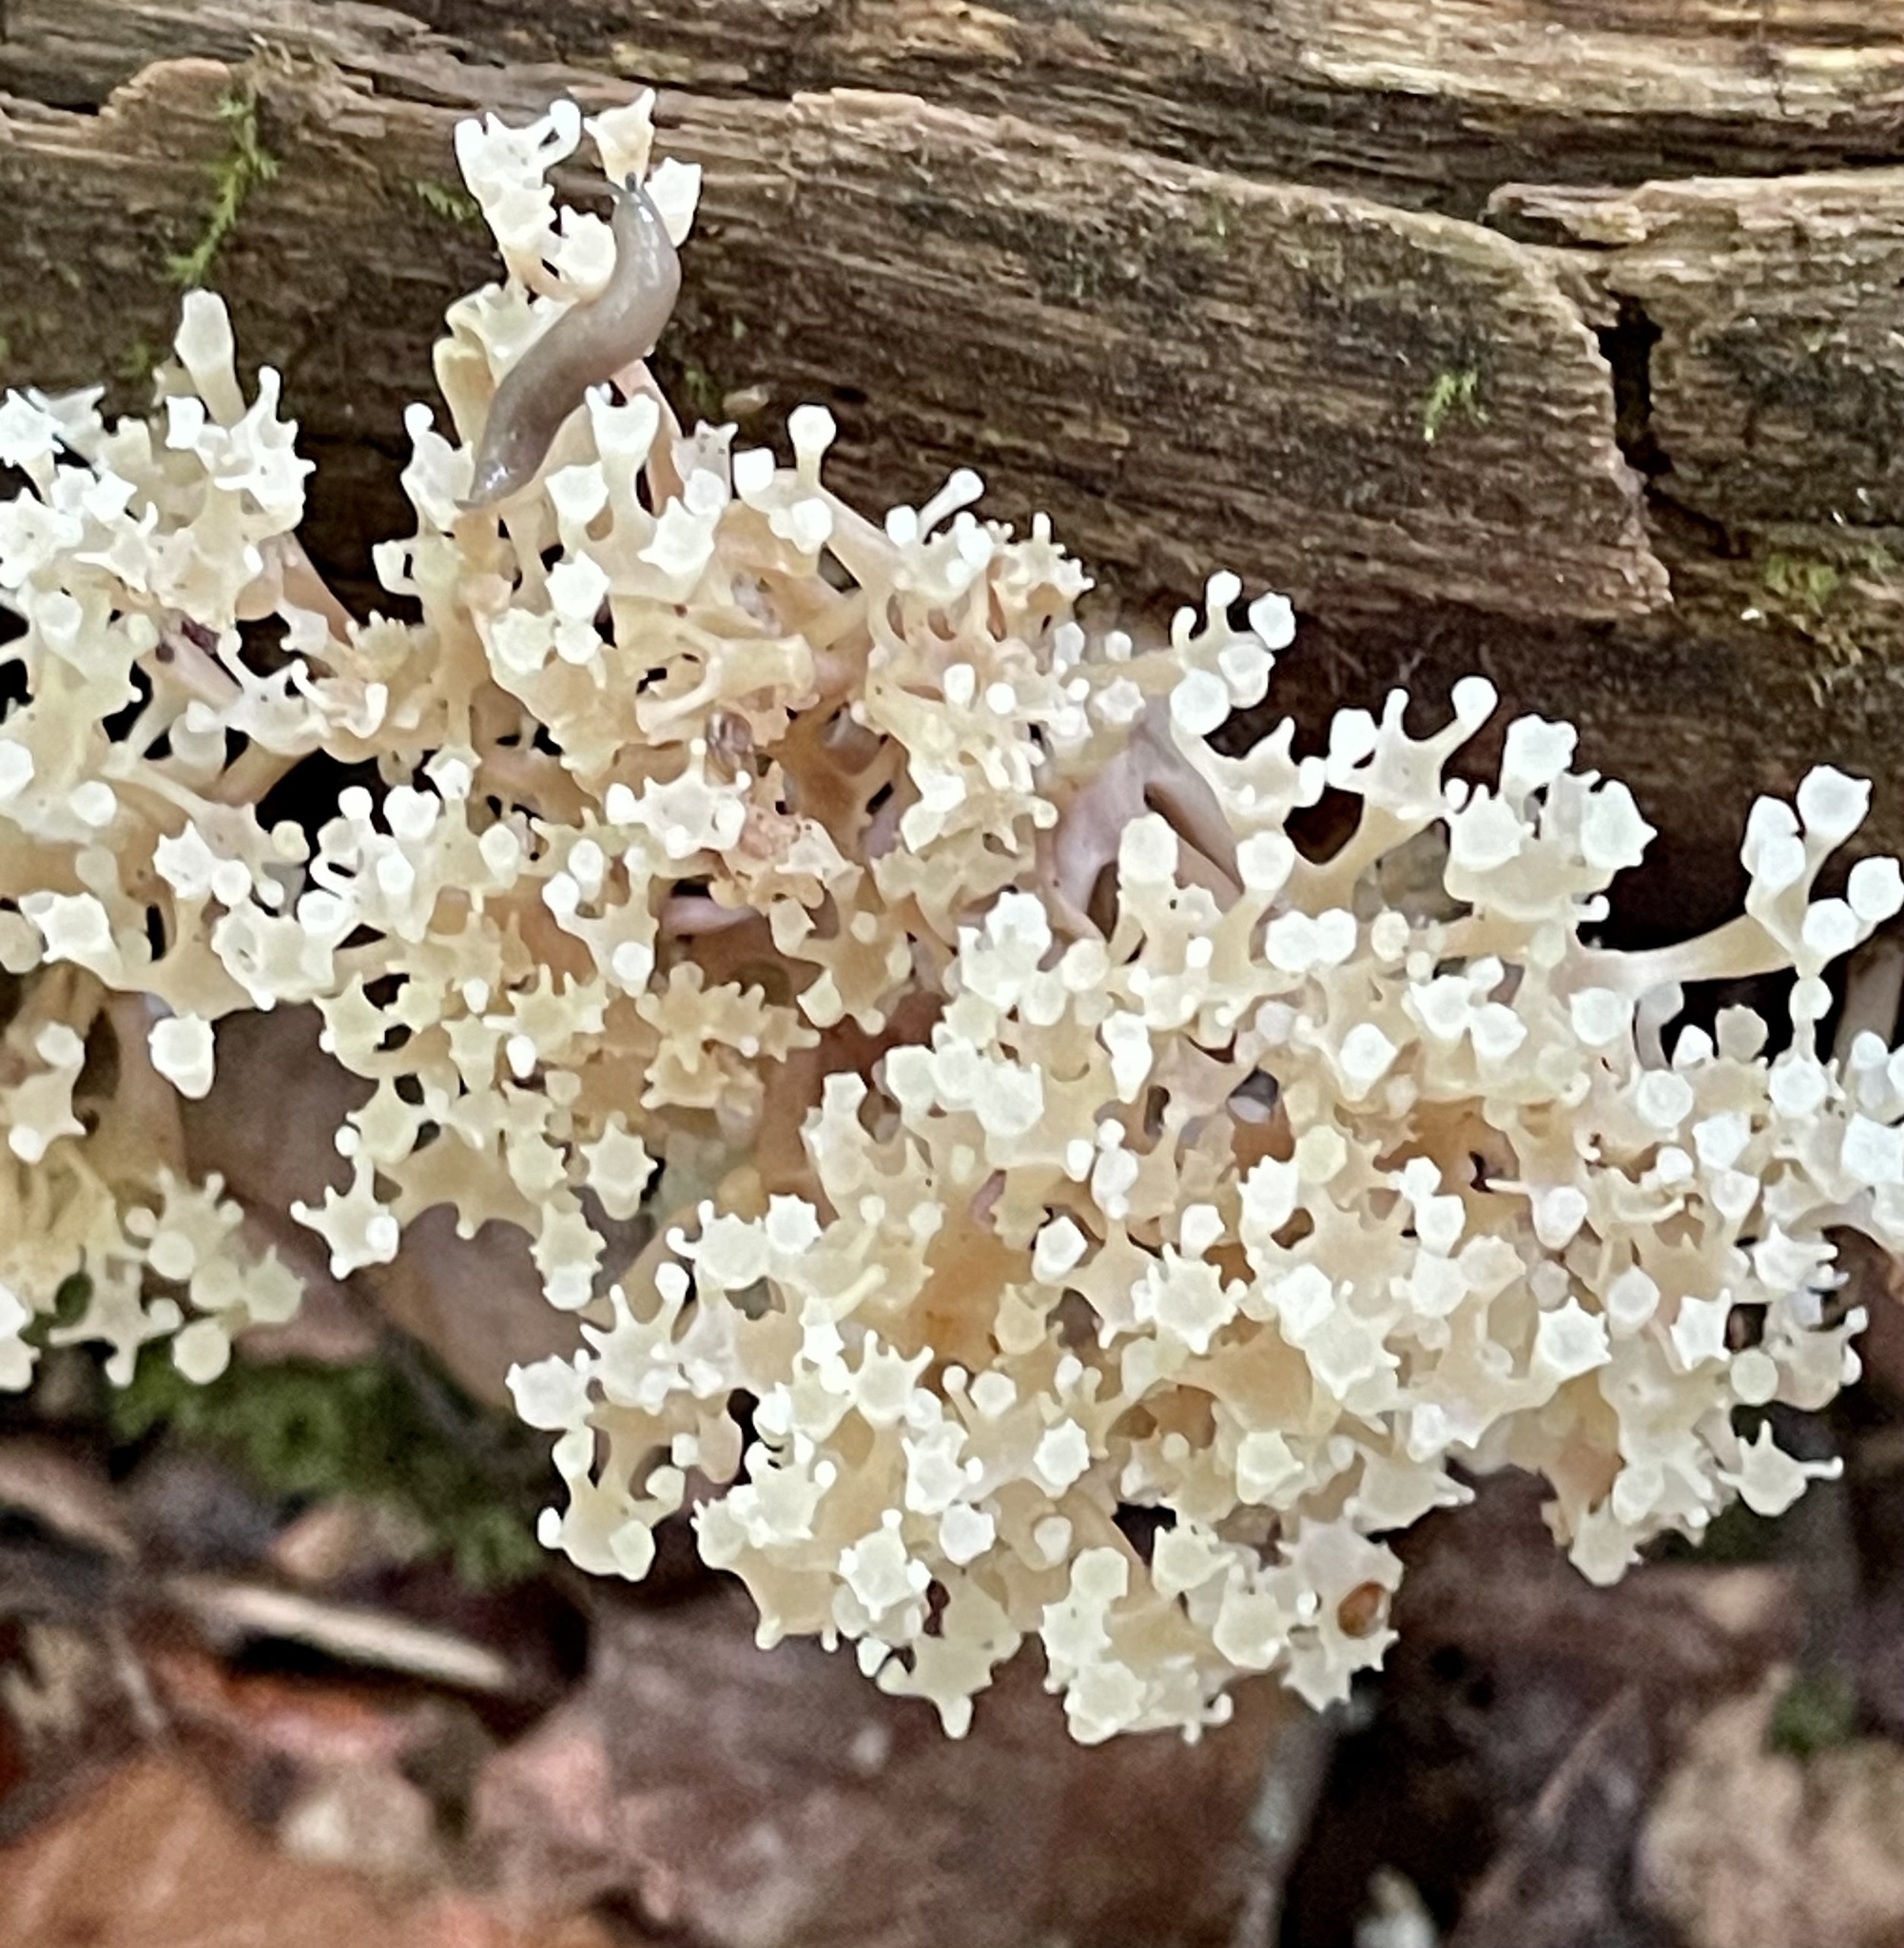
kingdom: Fungi
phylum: Basidiomycota
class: Agaricomycetes
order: Russulales
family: Auriscalpiaceae
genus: Artomyces
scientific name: Artomyces pyxidatus
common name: Crown-tipped coral fungus
